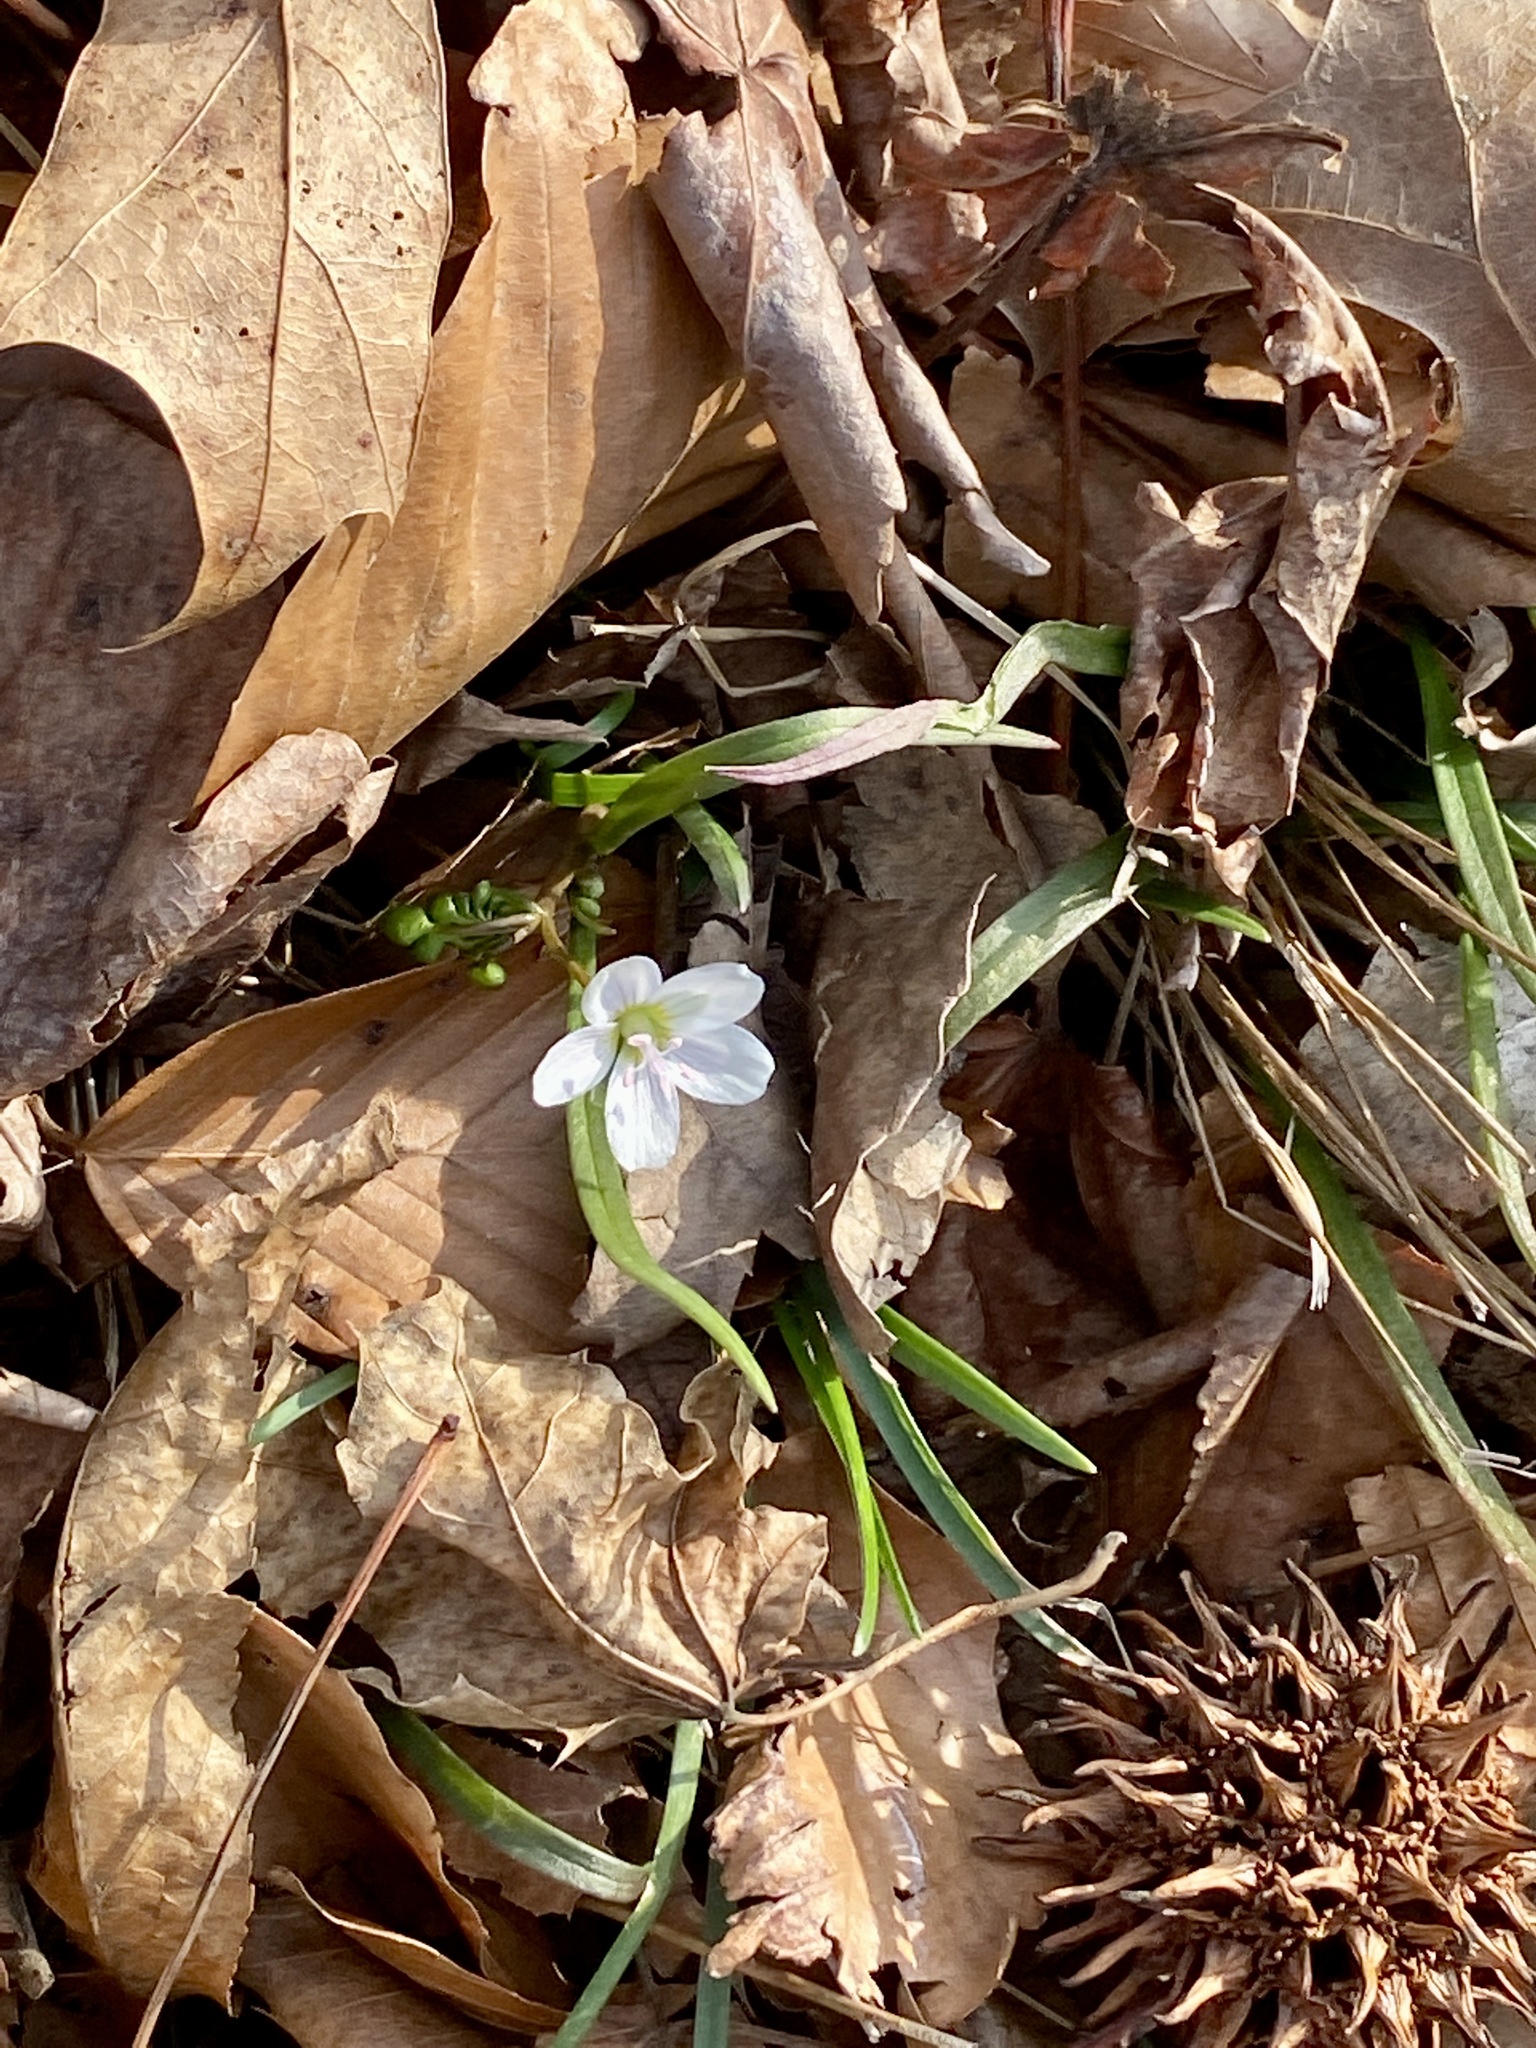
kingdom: Plantae
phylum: Tracheophyta
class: Magnoliopsida
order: Caryophyllales
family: Montiaceae
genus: Claytonia
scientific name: Claytonia virginica
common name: Virginia springbeauty
